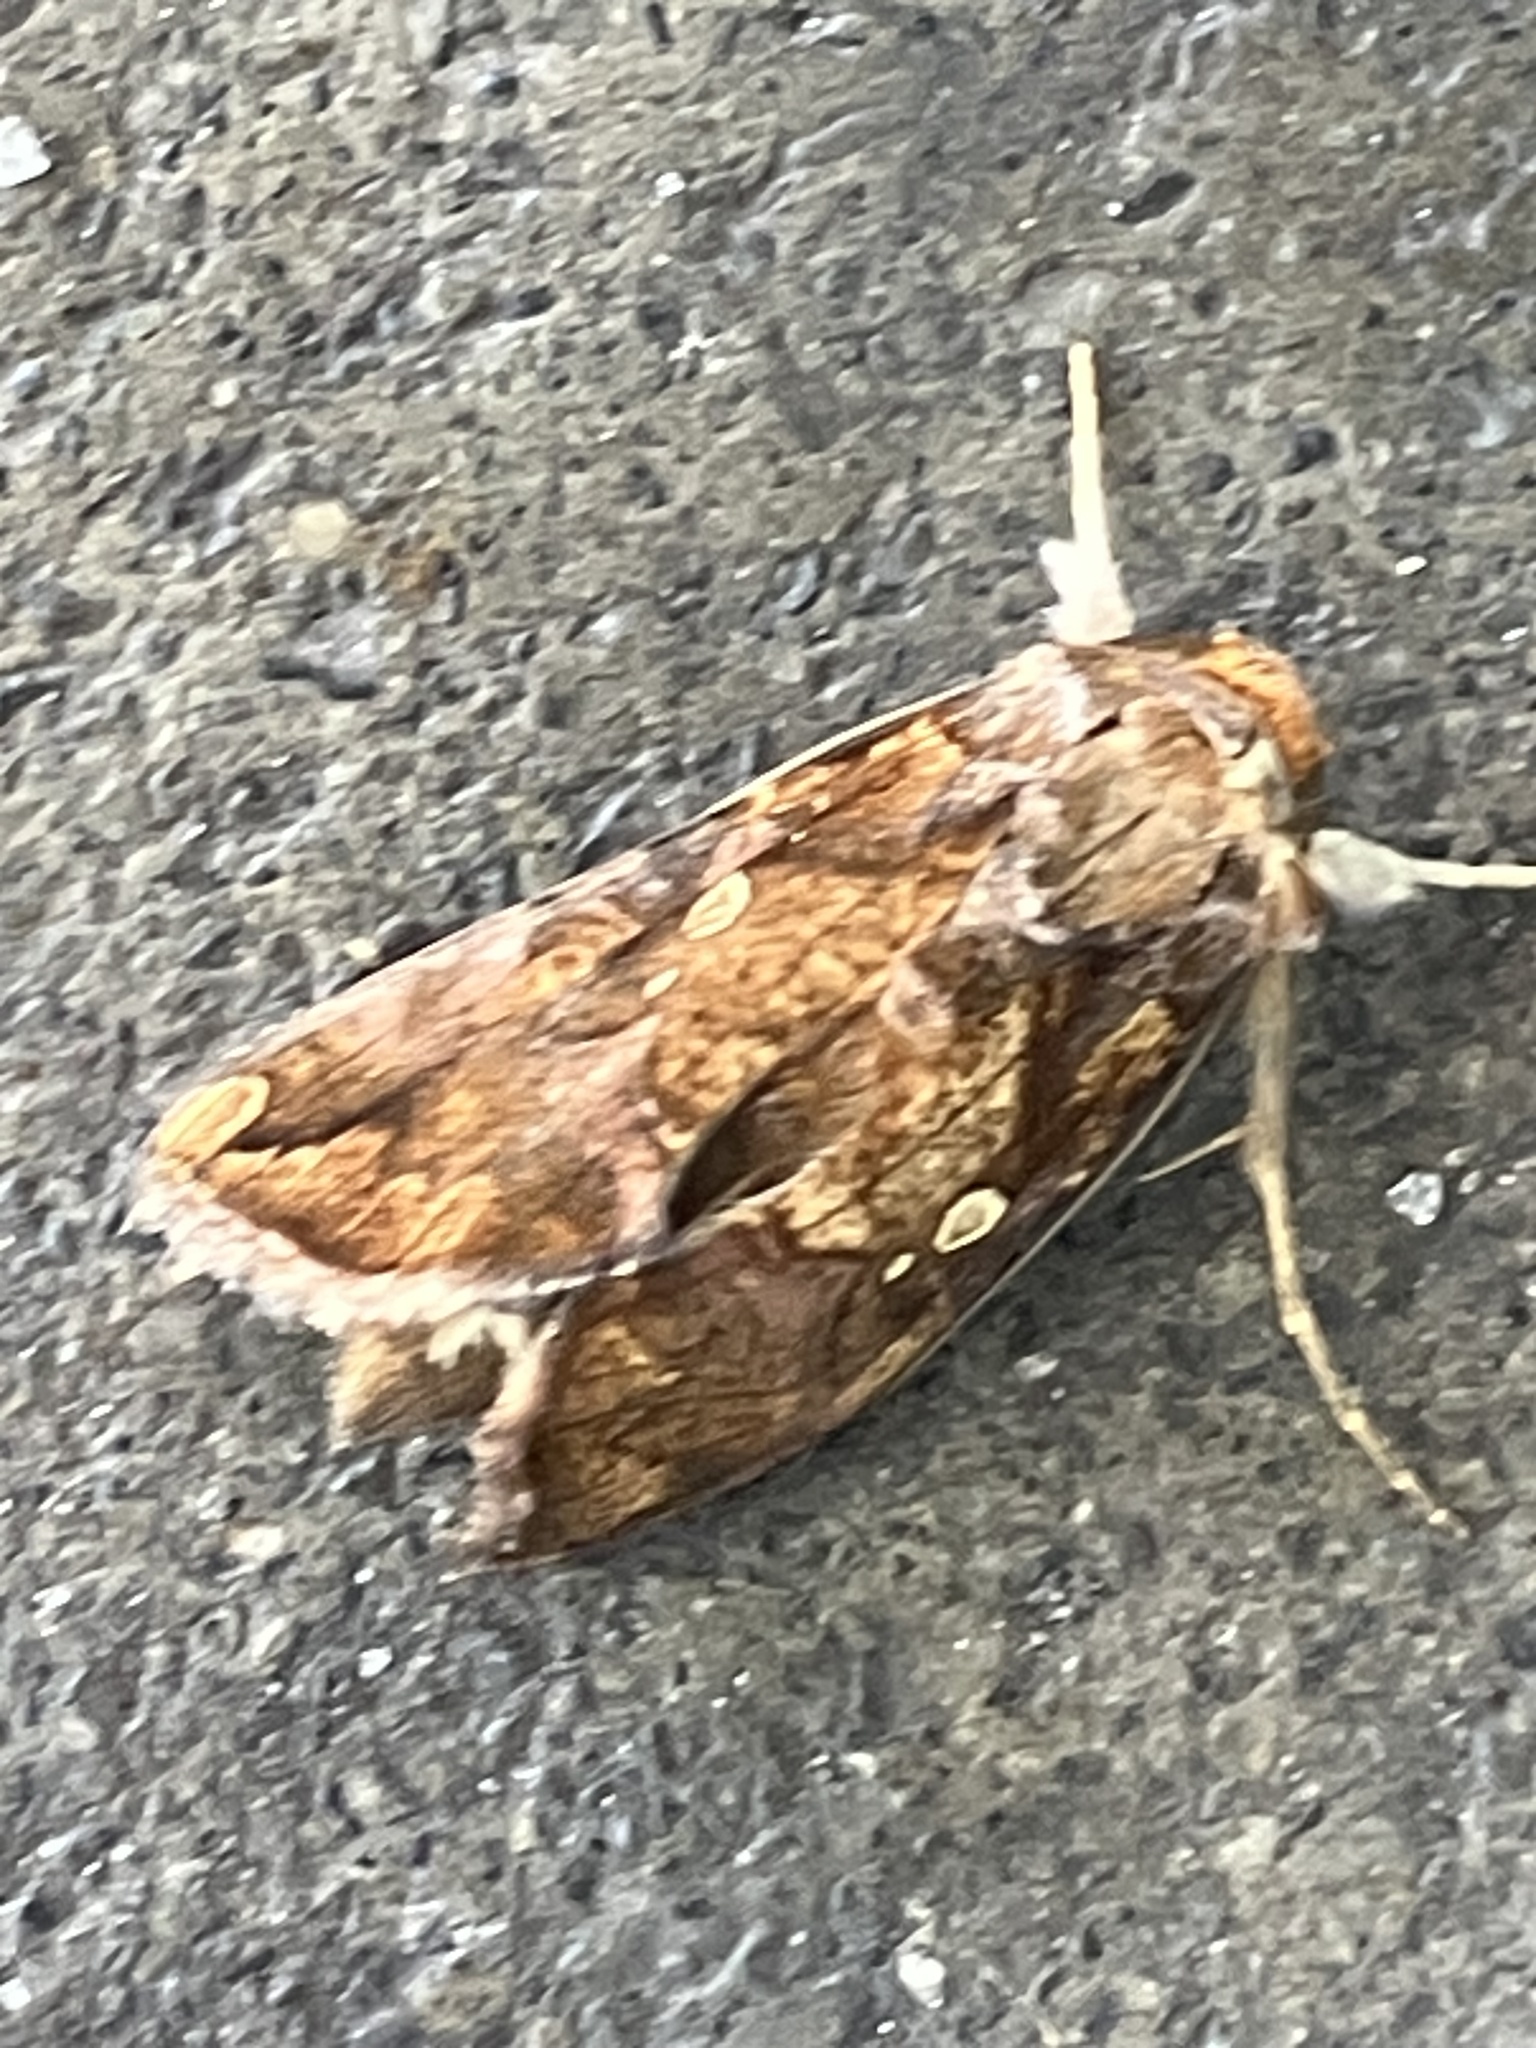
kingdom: Animalia
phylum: Arthropoda
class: Insecta
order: Lepidoptera
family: Noctuidae
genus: Argyrogramma
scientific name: Argyrogramma verruca
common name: Golden looper moth
